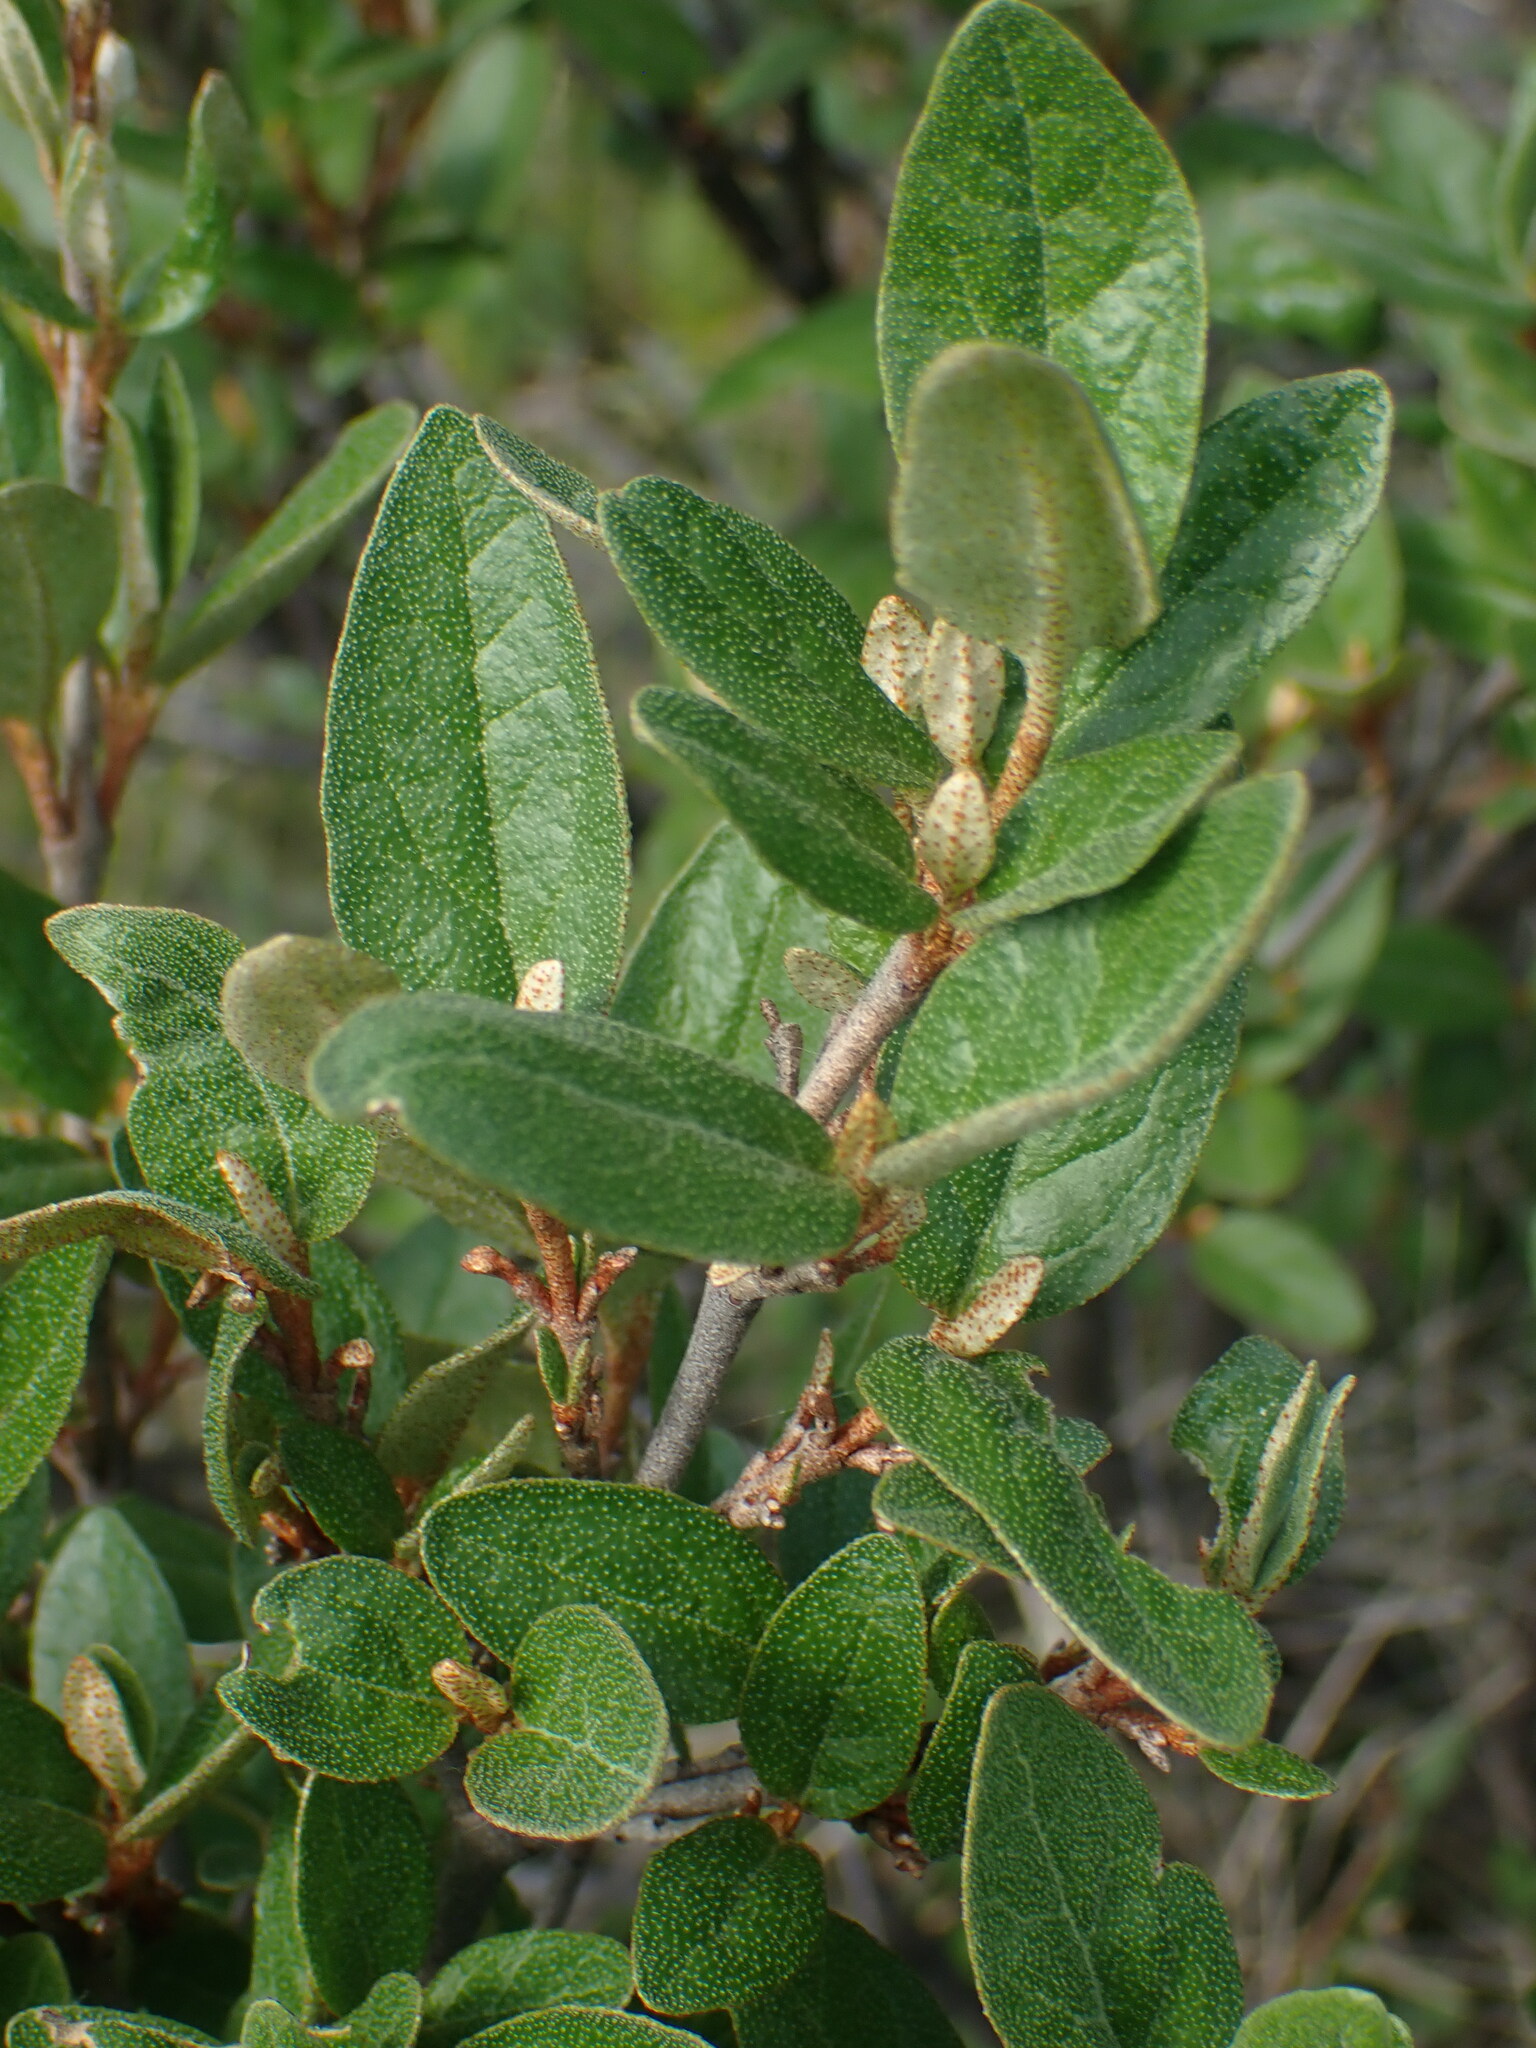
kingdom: Plantae
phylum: Tracheophyta
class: Magnoliopsida
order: Rosales
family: Elaeagnaceae
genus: Shepherdia
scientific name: Shepherdia canadensis
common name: Soapberry
